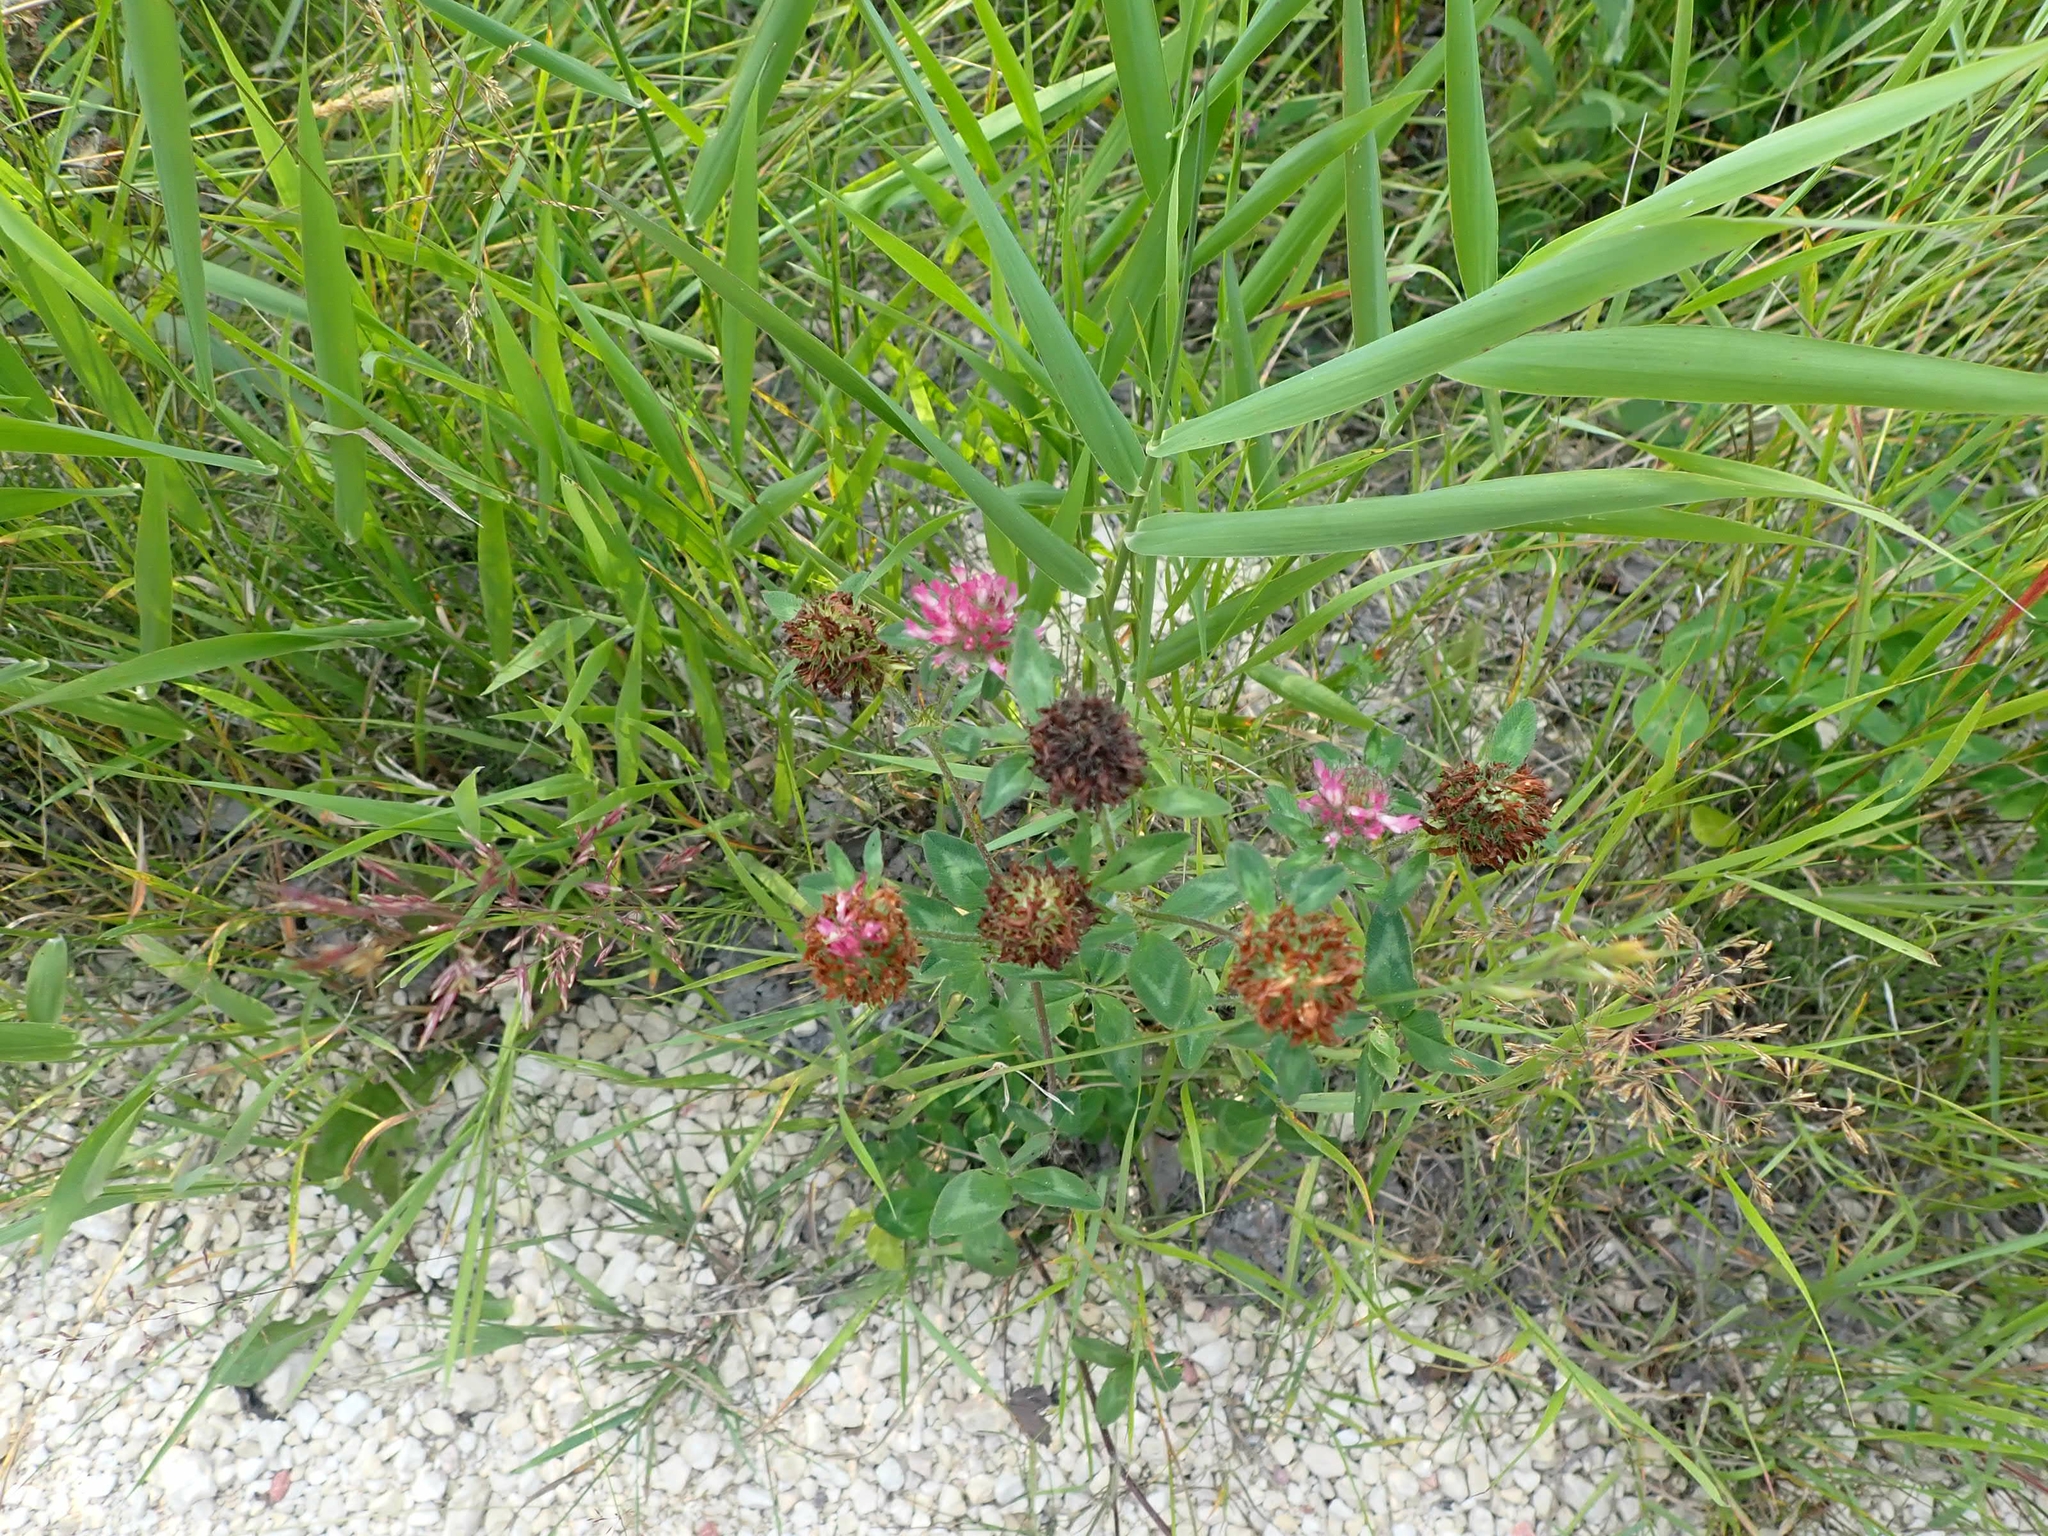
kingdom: Plantae
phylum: Tracheophyta
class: Magnoliopsida
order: Fabales
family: Fabaceae
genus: Trifolium
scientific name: Trifolium pratense
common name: Red clover
